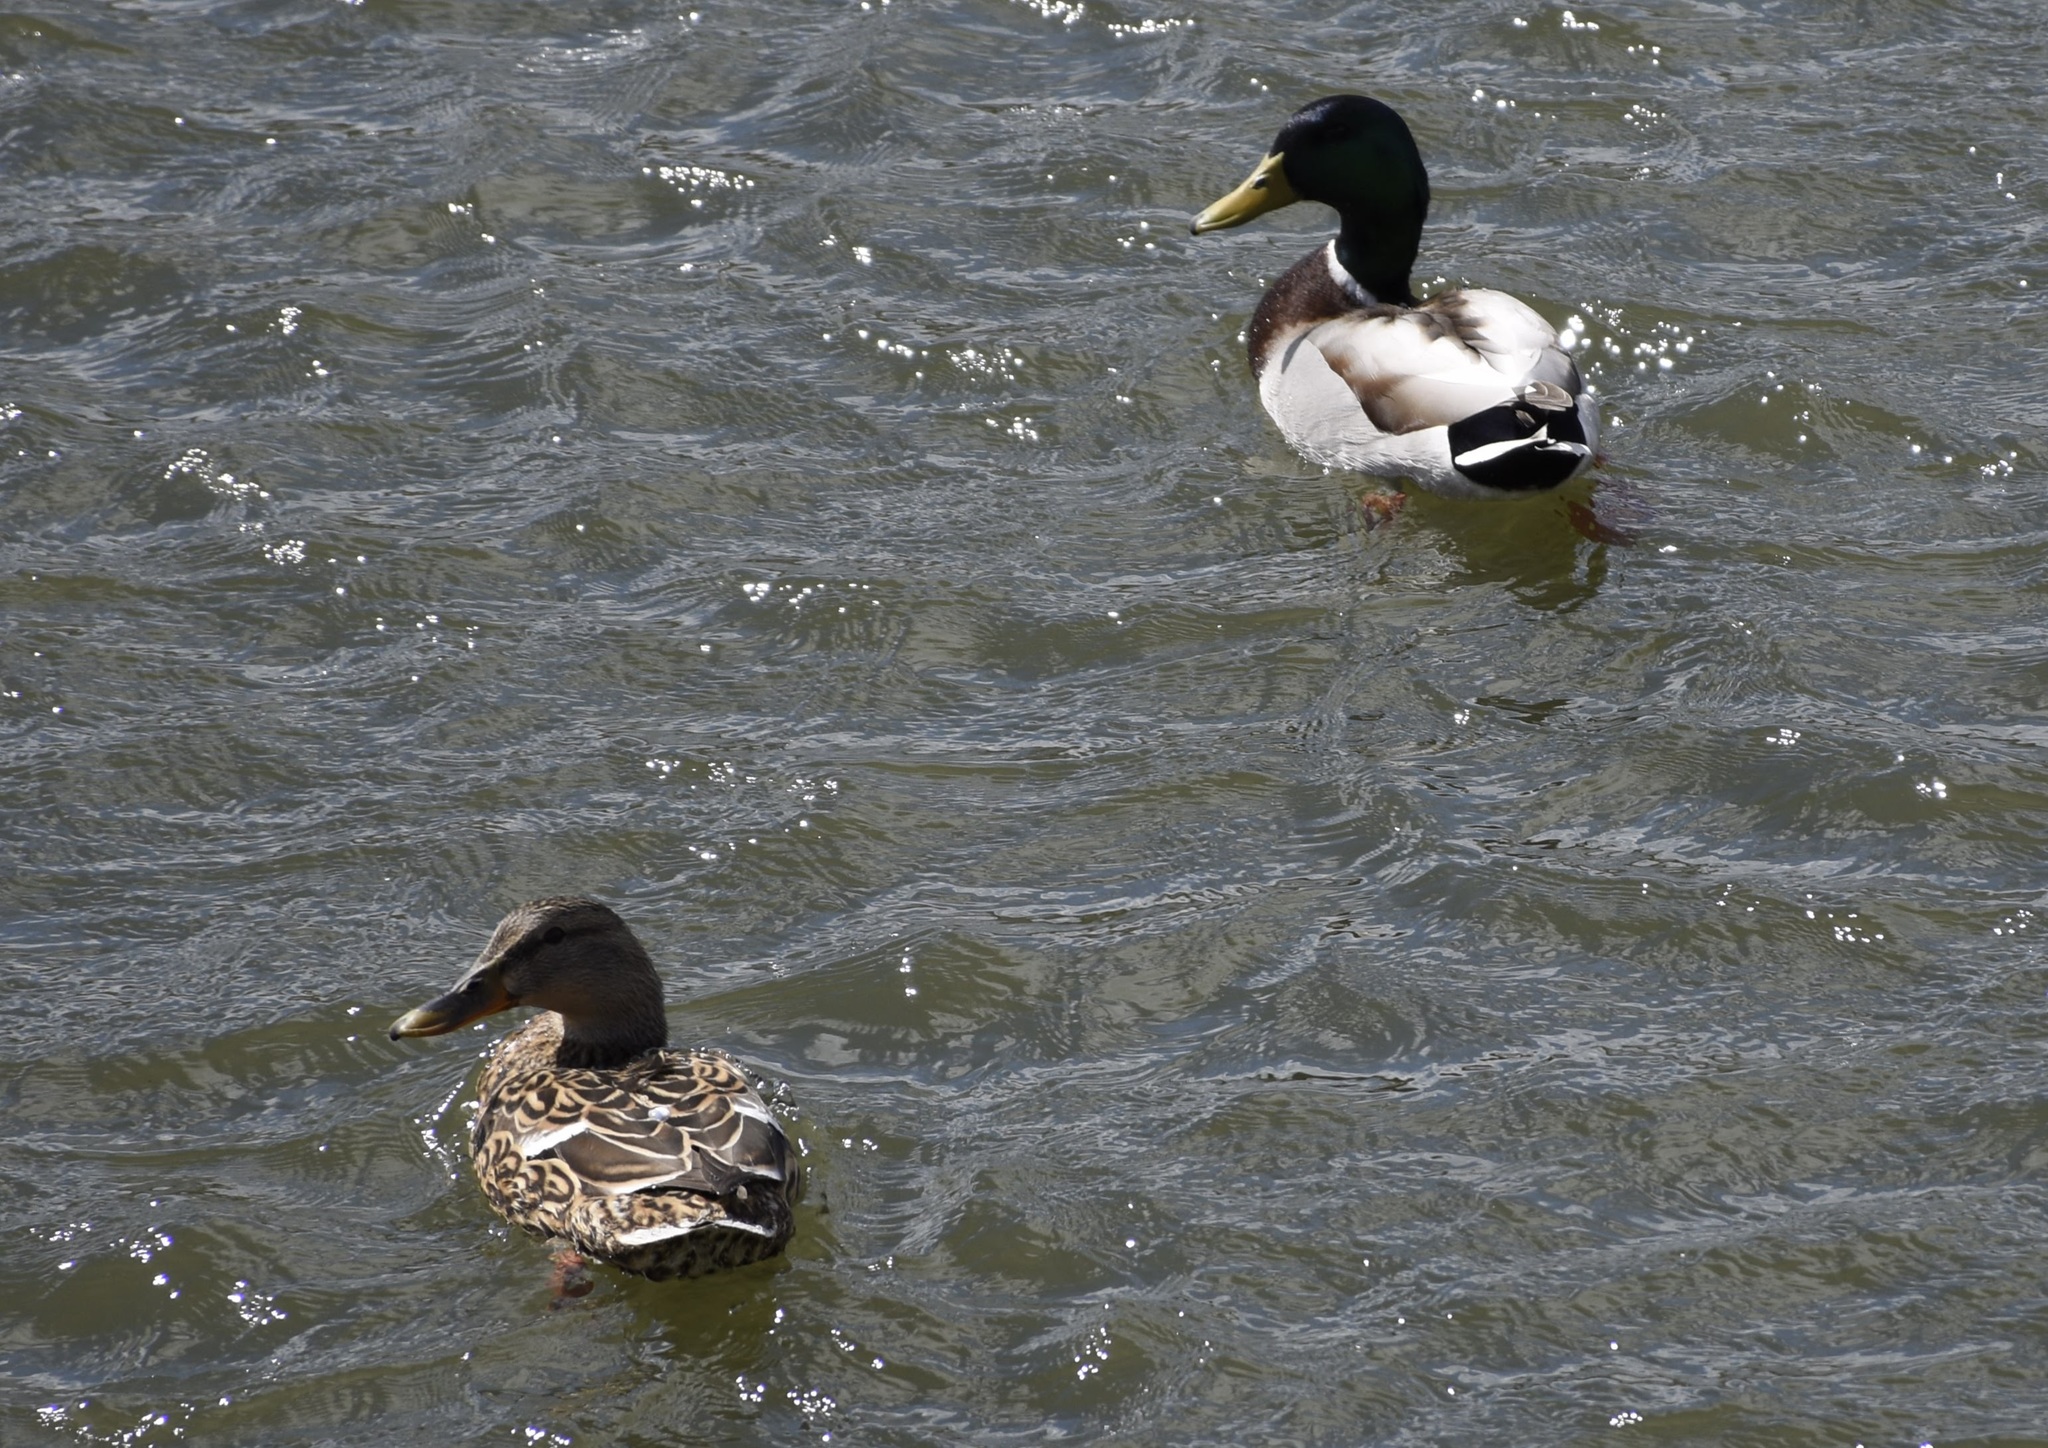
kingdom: Animalia
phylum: Chordata
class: Aves
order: Anseriformes
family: Anatidae
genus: Anas
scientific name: Anas platyrhynchos
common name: Mallard
